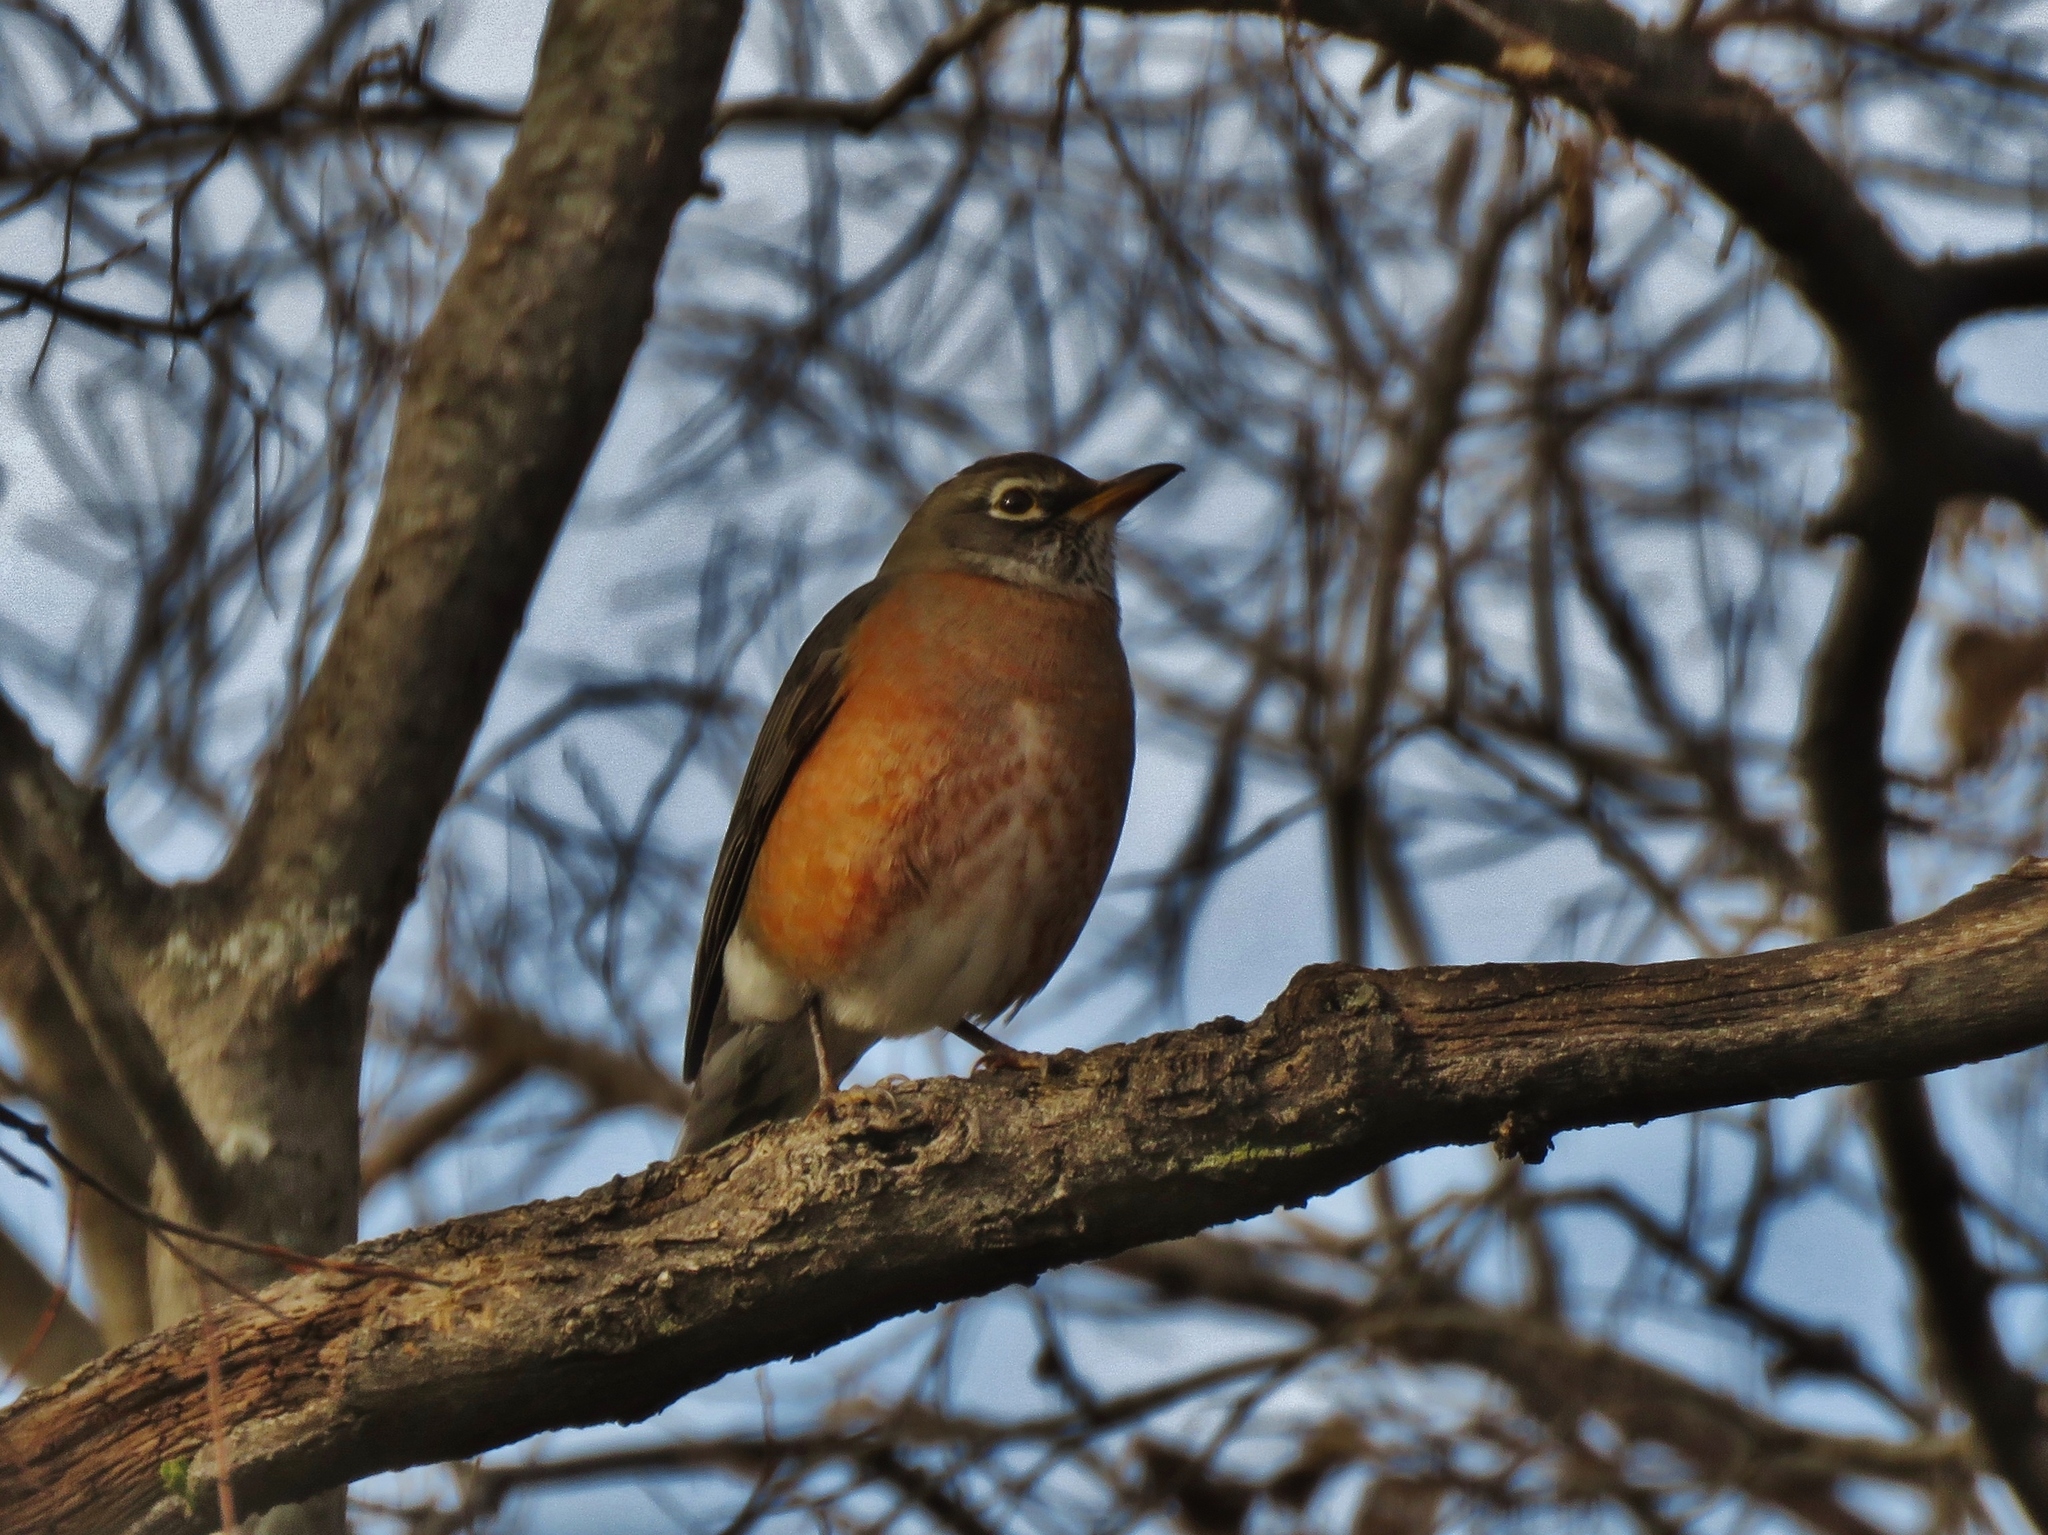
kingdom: Animalia
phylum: Chordata
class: Aves
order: Passeriformes
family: Turdidae
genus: Turdus
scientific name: Turdus migratorius
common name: American robin
